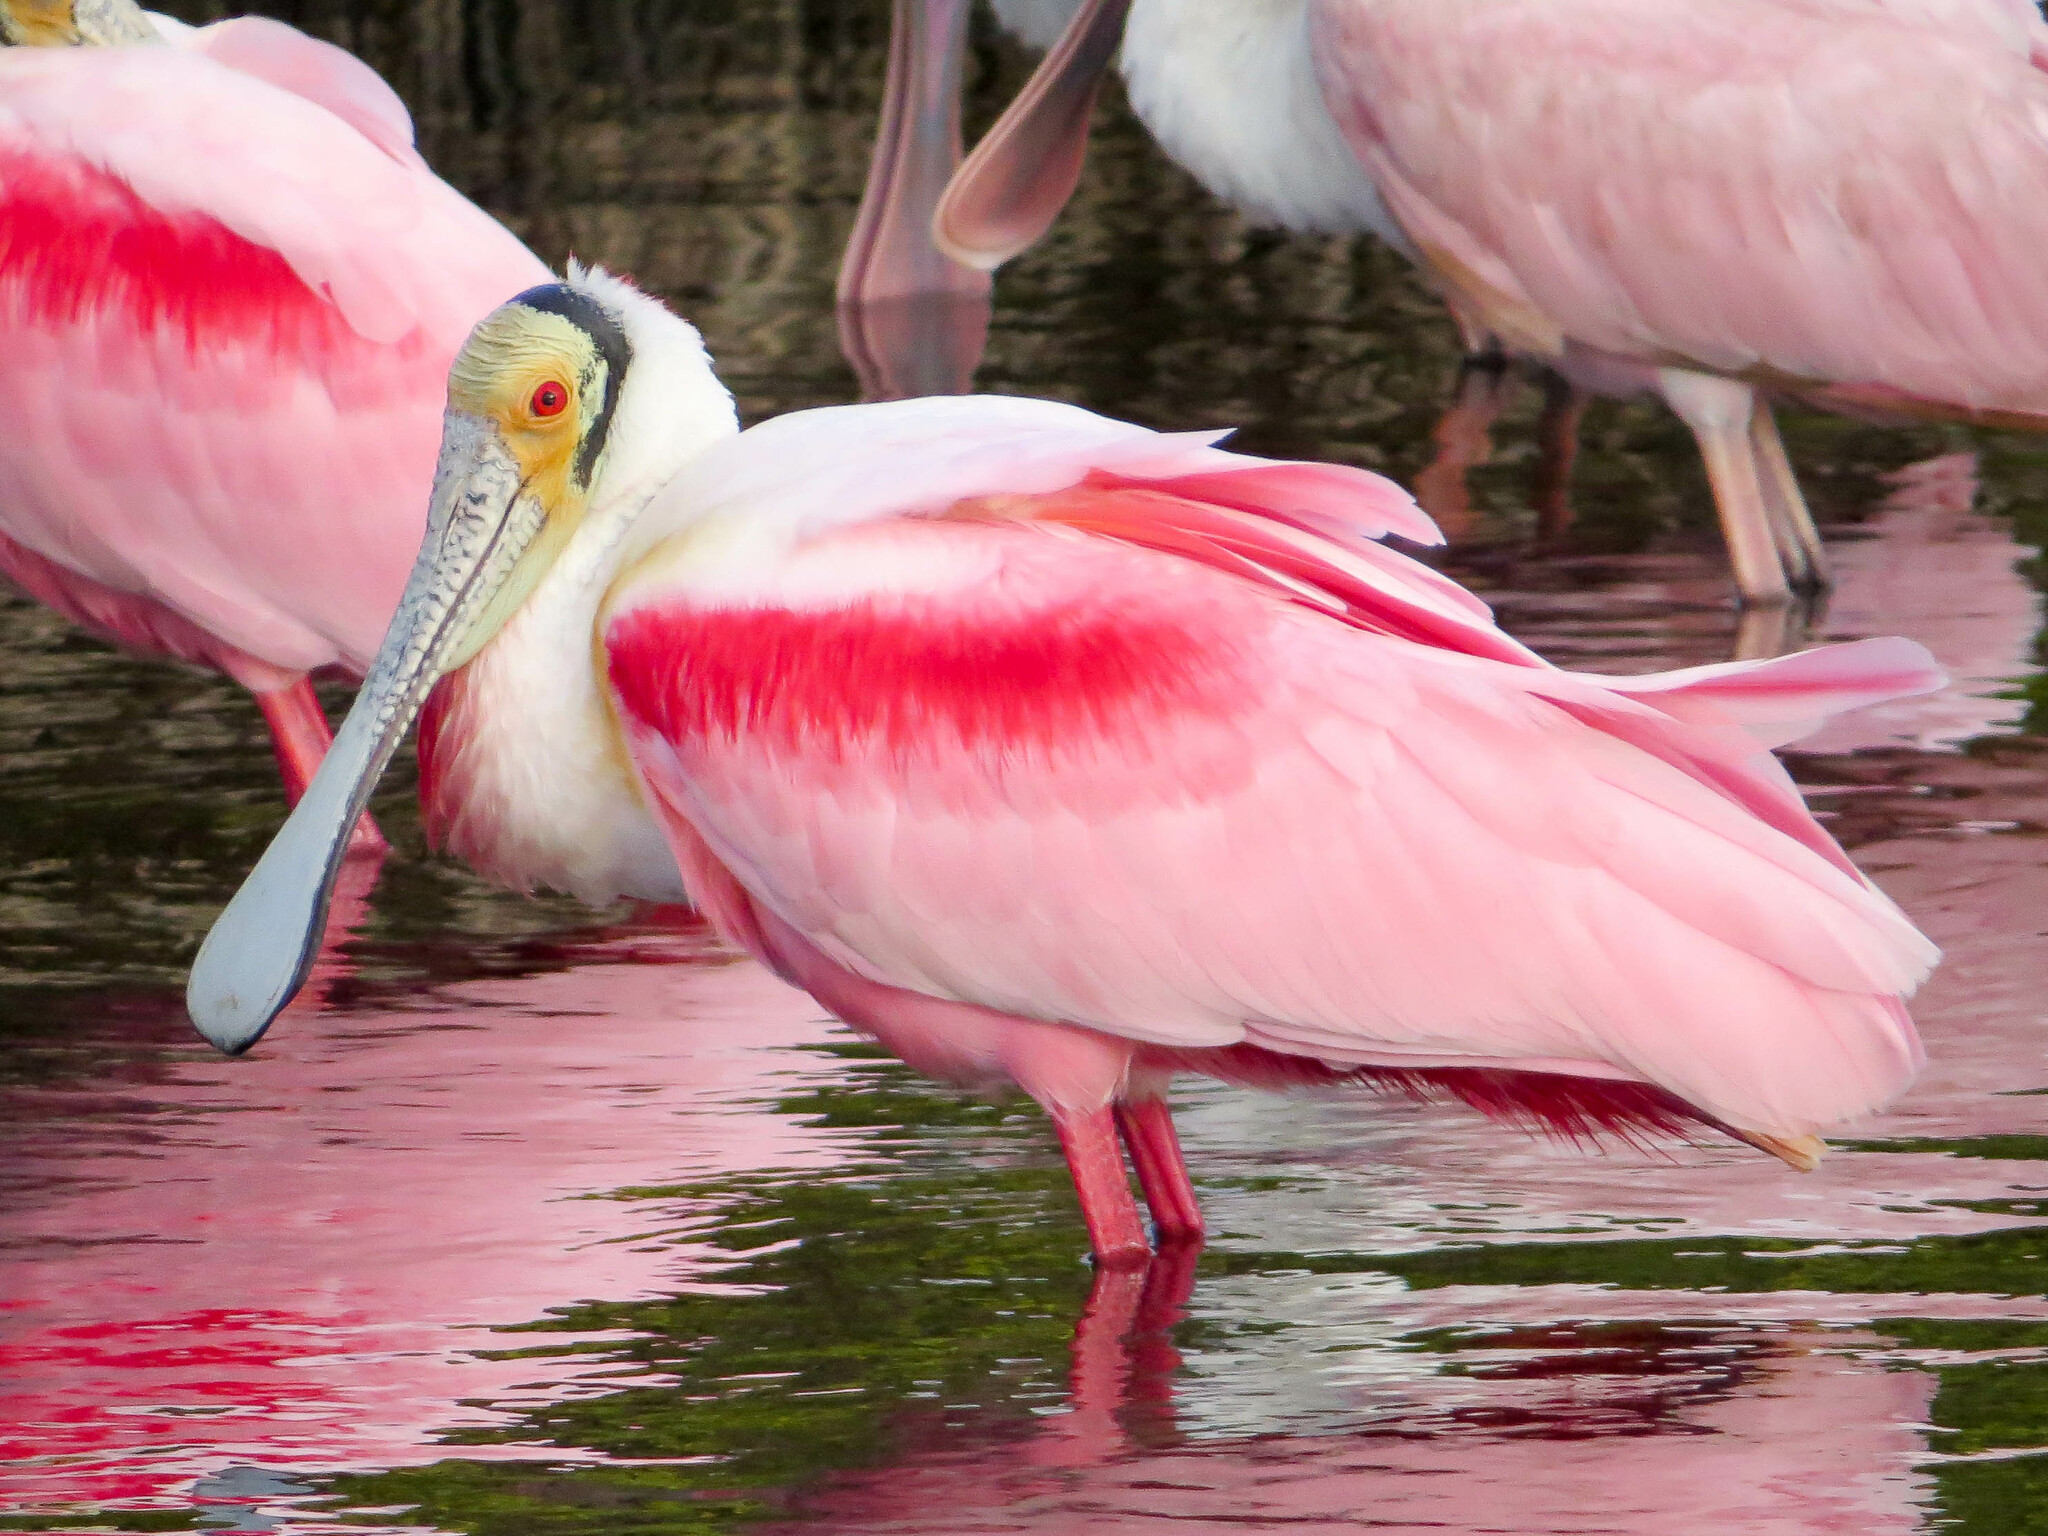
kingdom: Animalia
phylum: Chordata
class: Aves
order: Pelecaniformes
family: Threskiornithidae
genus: Platalea
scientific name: Platalea ajaja
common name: Roseate spoonbill
